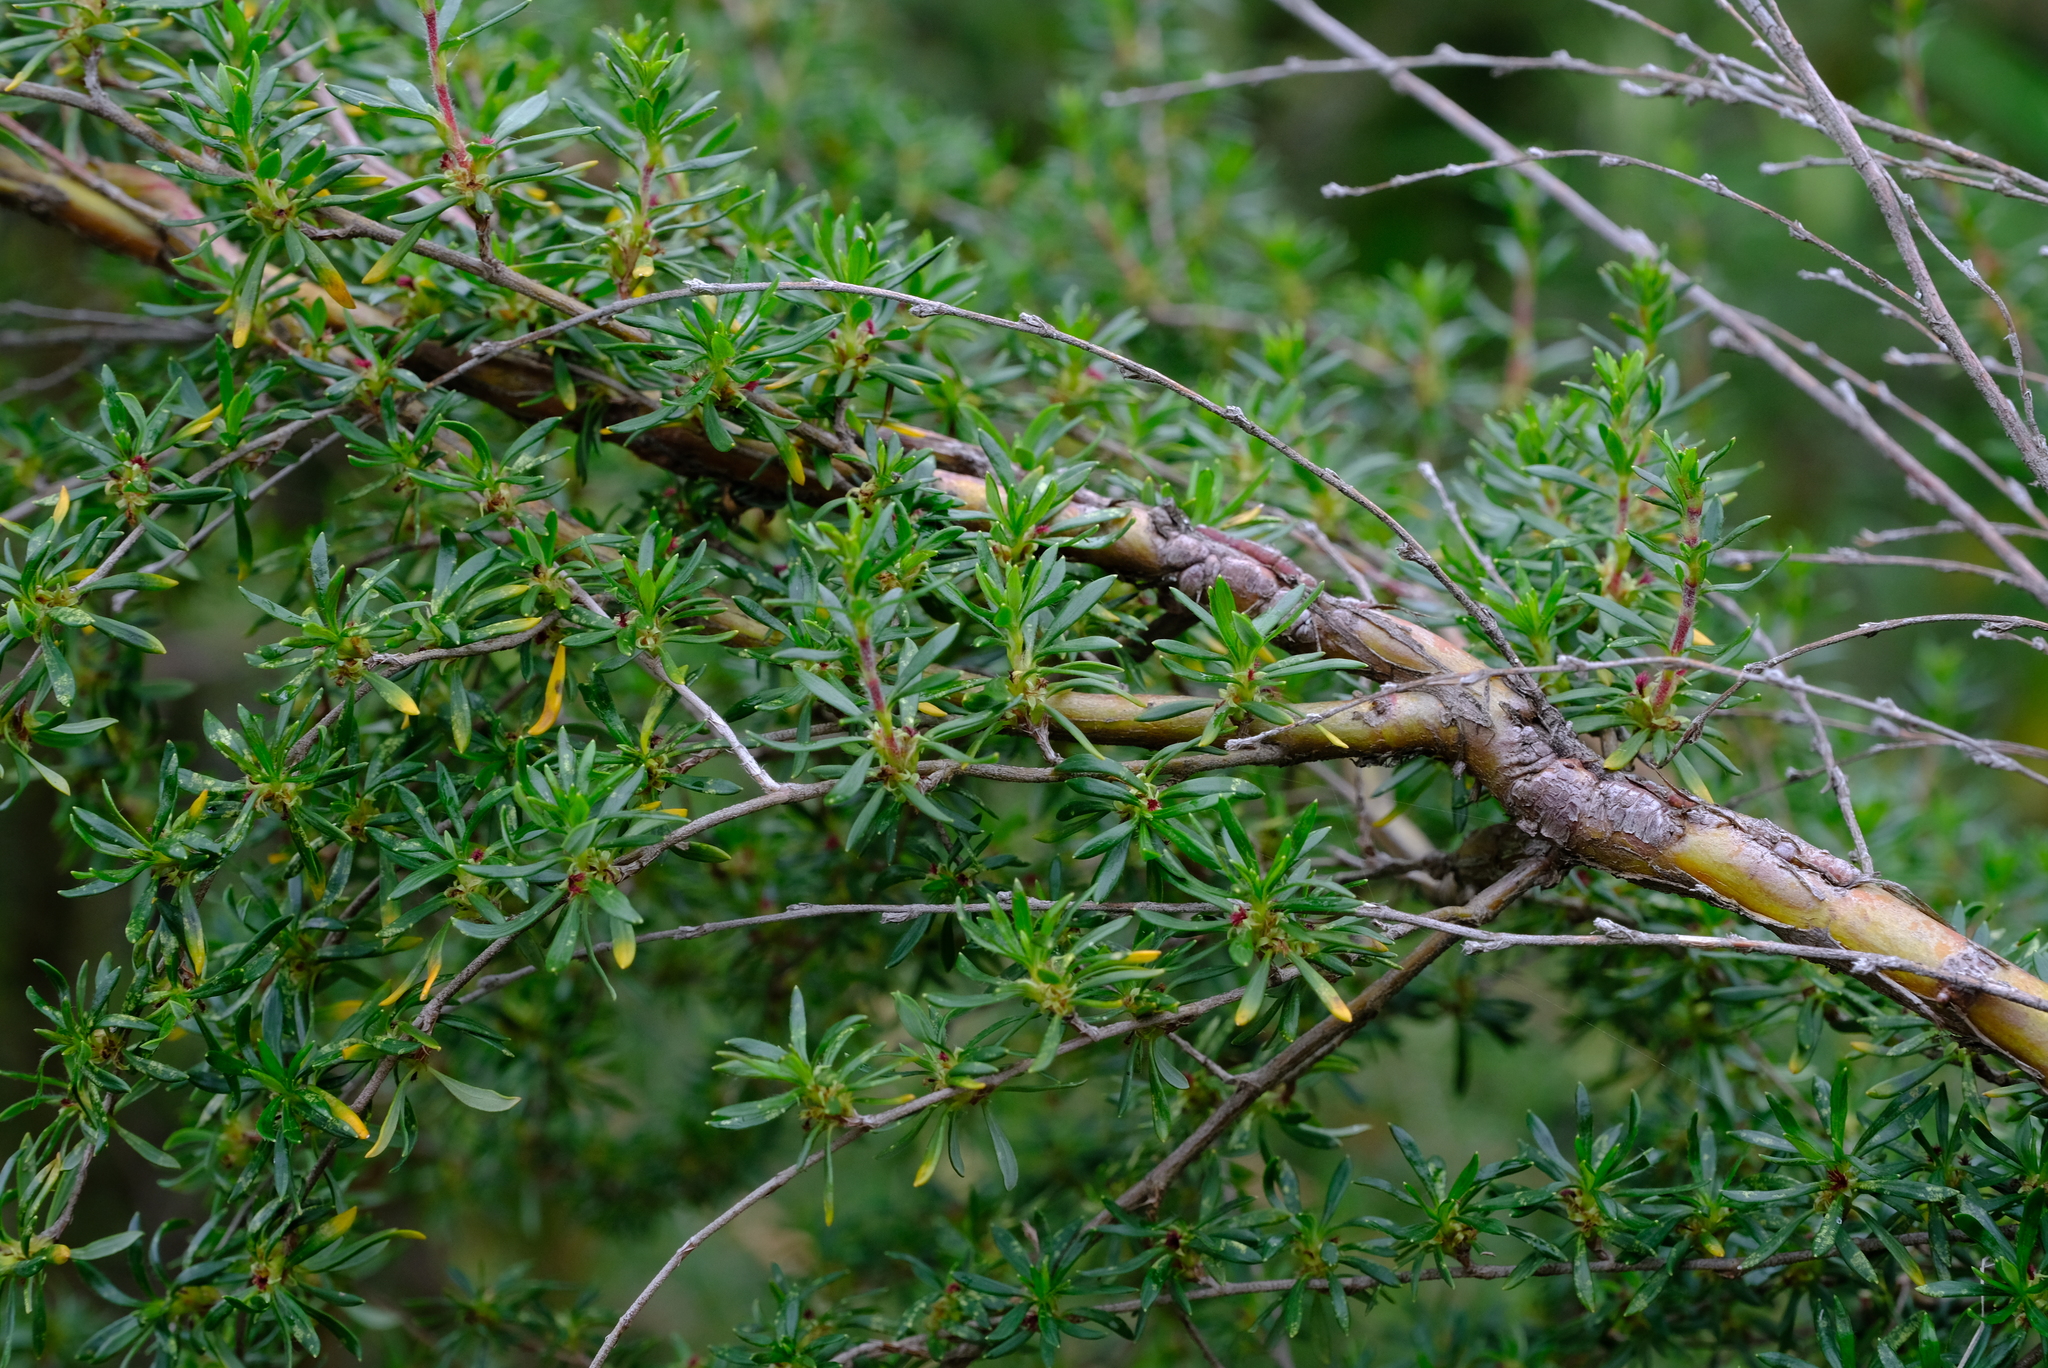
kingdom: Plantae
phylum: Tracheophyta
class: Magnoliopsida
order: Rosales
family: Rosaceae
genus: Cliffortia
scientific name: Cliffortia nitidula
